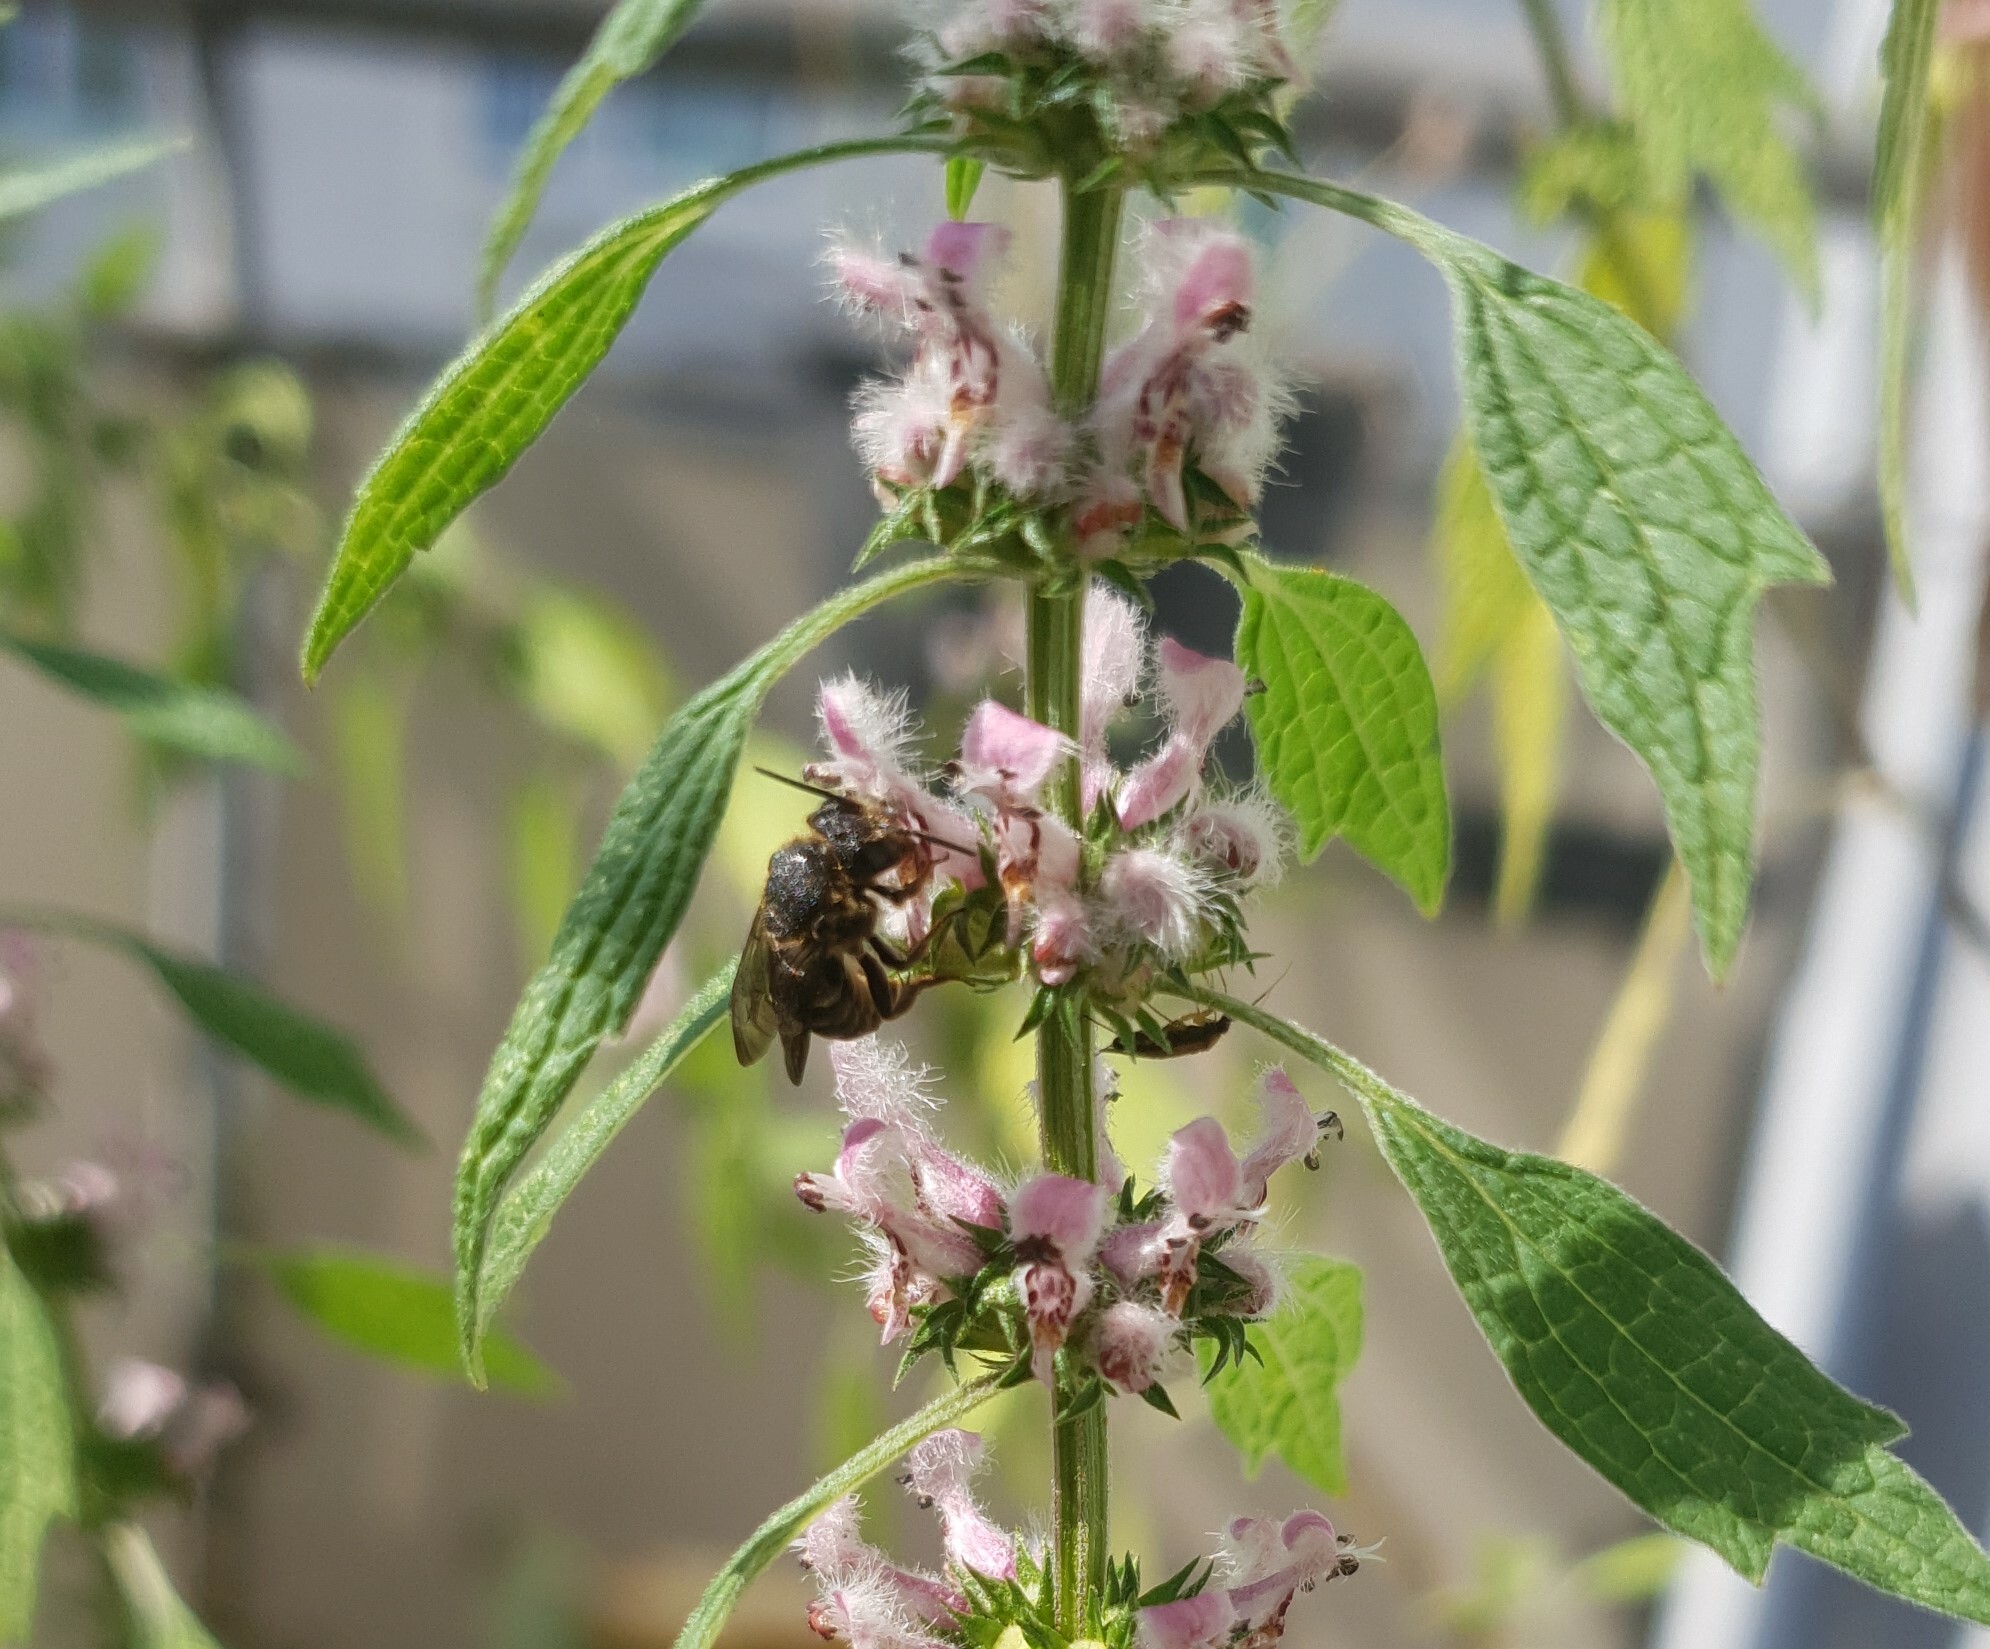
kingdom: Animalia
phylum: Arthropoda
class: Insecta
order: Hymenoptera
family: Megachilidae
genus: Stelis
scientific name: Stelis punctulatissima
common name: Banded dark bee
